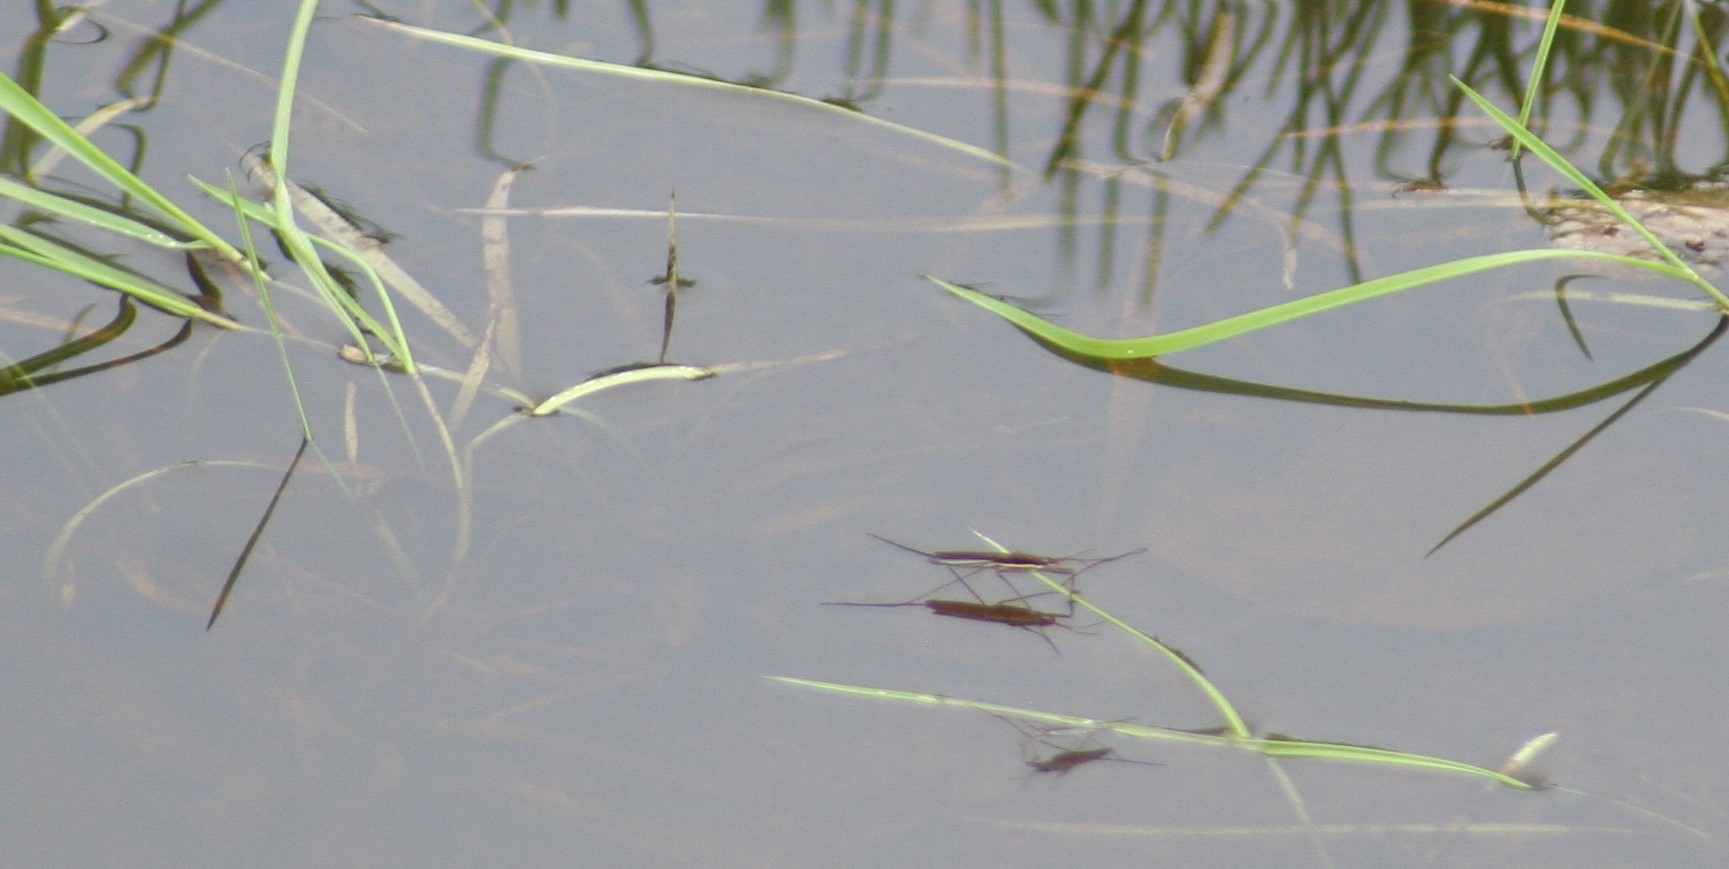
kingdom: Animalia
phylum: Arthropoda
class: Insecta
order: Hemiptera
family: Gerridae
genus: Limnoporus
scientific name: Limnoporus dissortis
